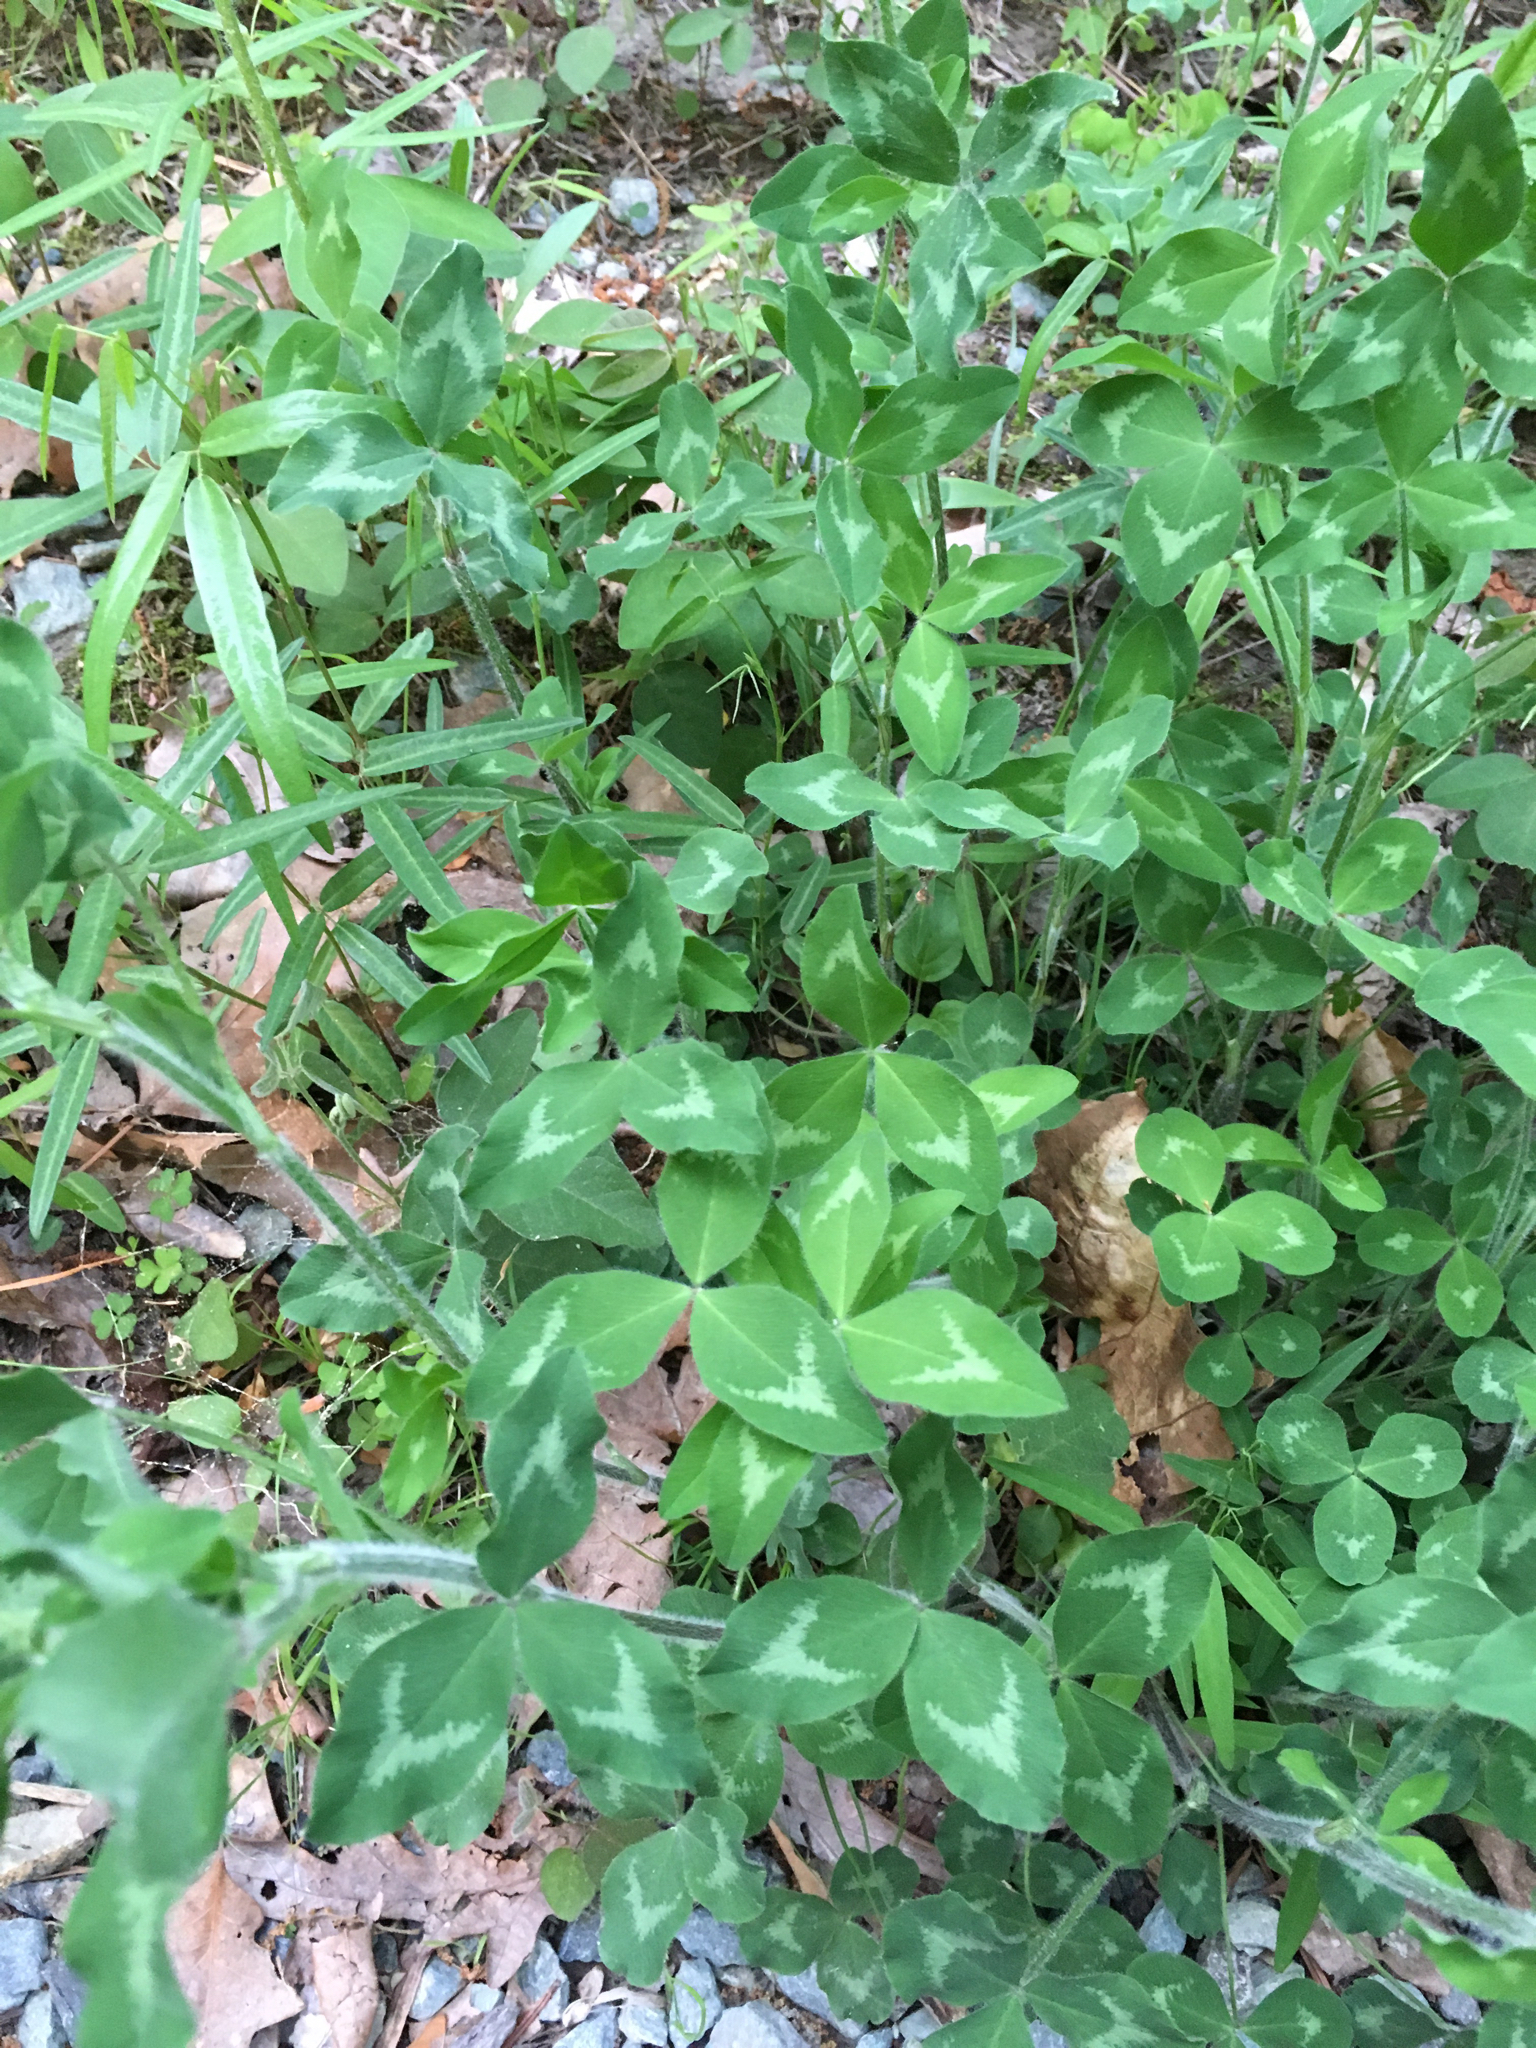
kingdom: Plantae
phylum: Tracheophyta
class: Magnoliopsida
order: Fabales
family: Fabaceae
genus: Trifolium
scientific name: Trifolium pratense
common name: Red clover
